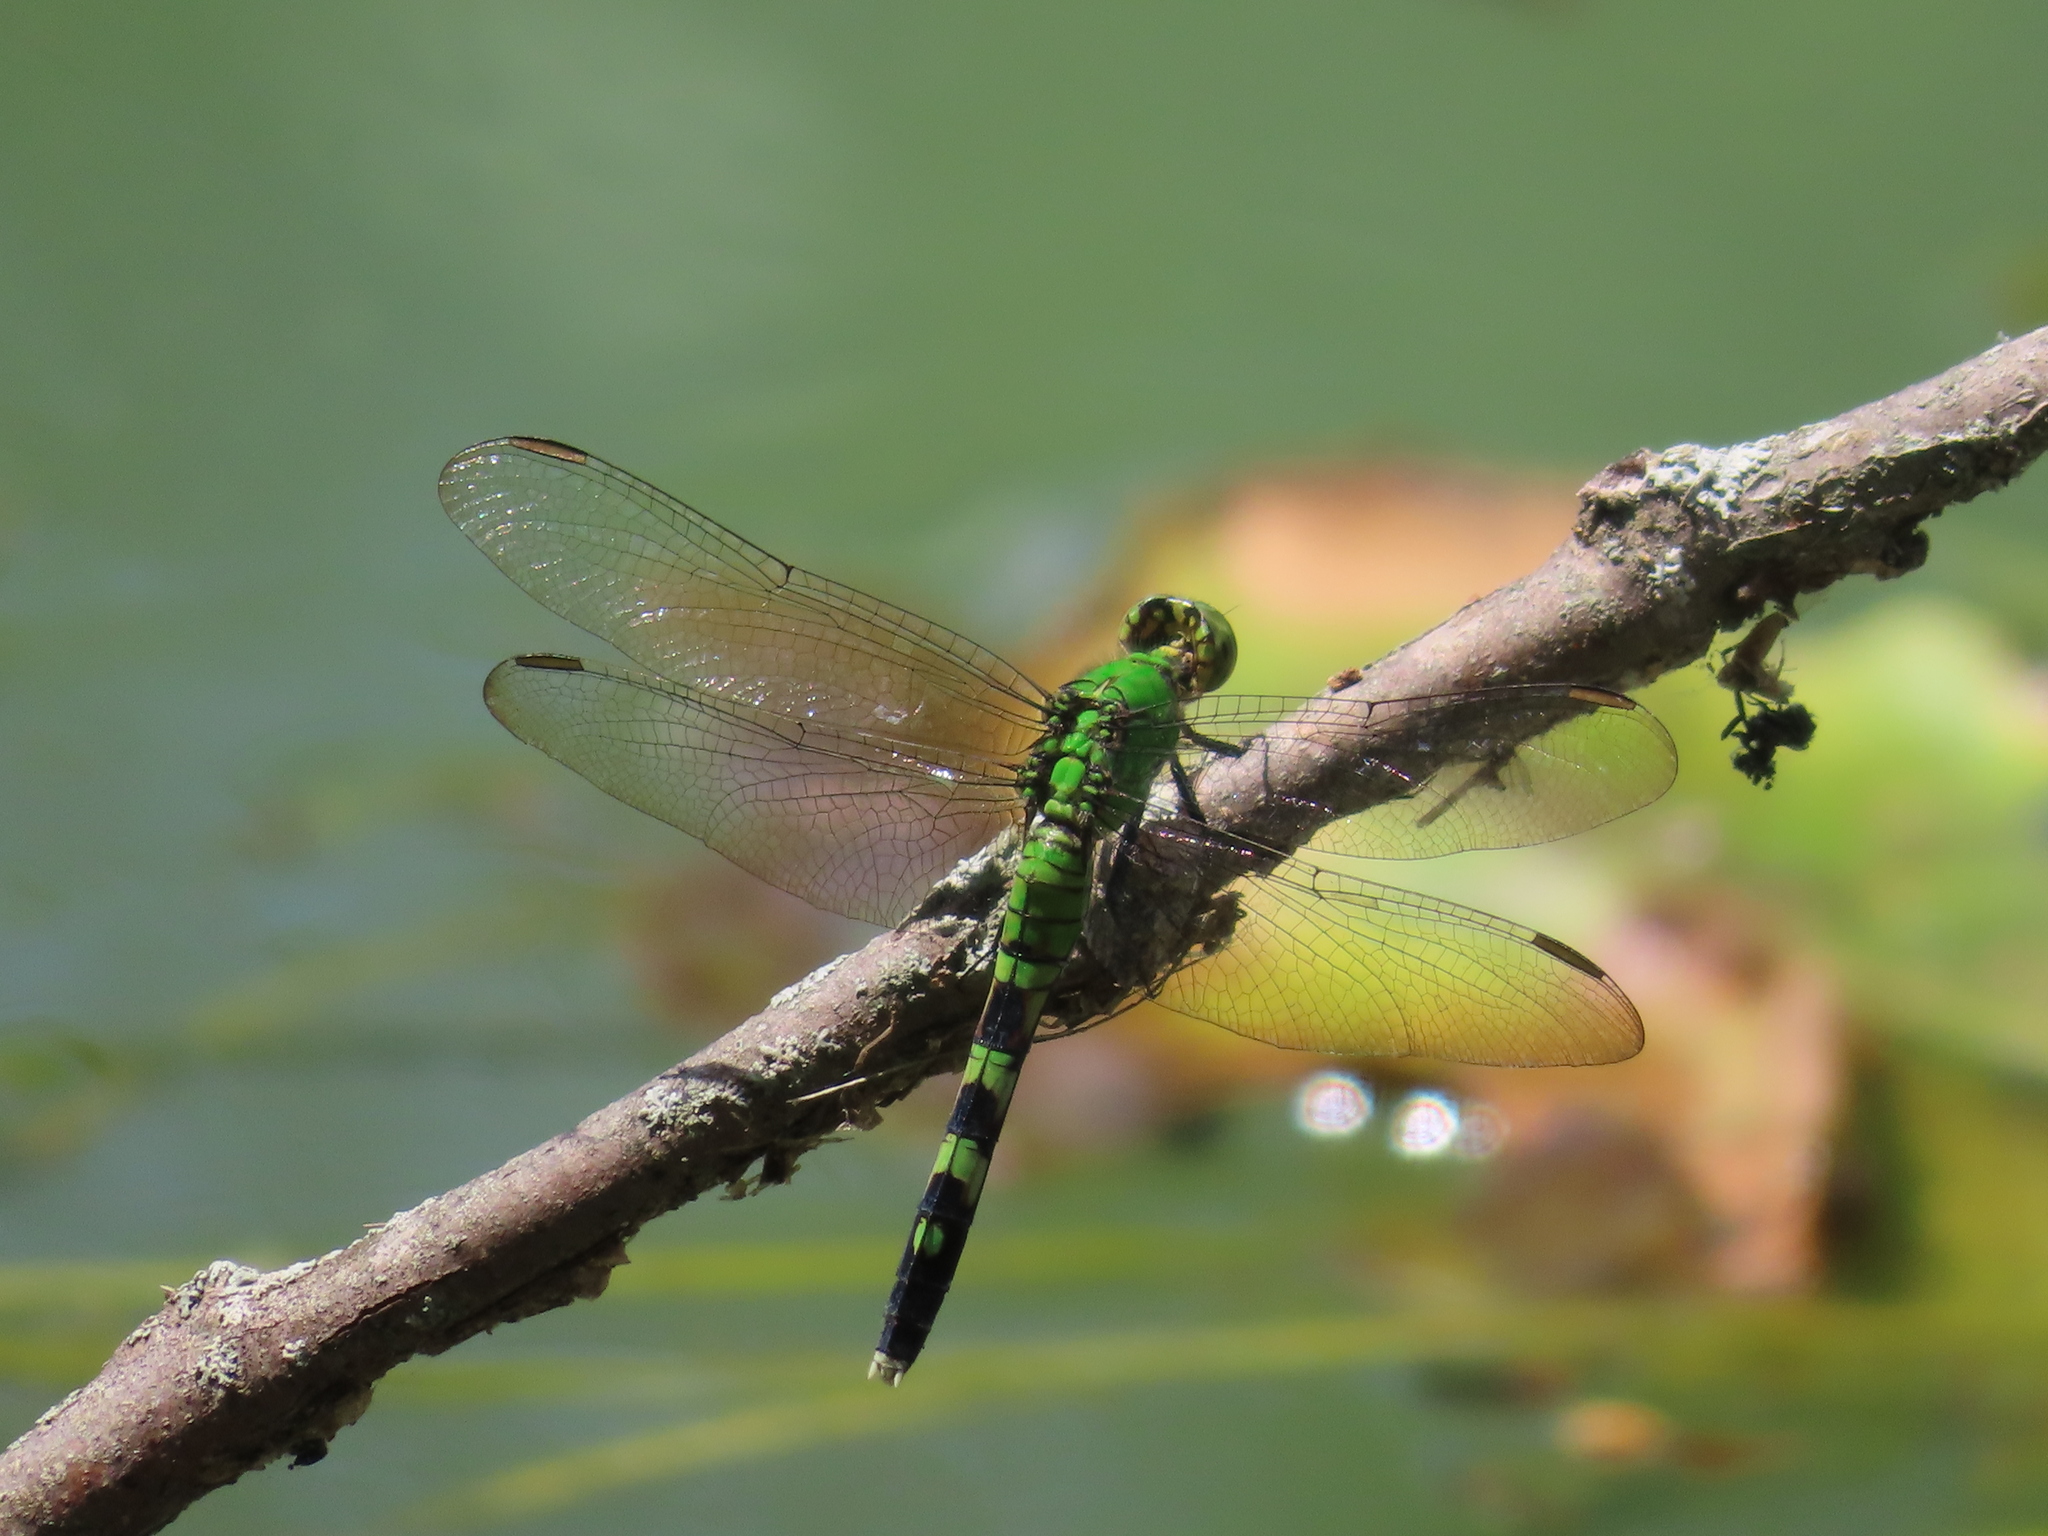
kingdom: Animalia
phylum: Arthropoda
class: Insecta
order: Odonata
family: Libellulidae
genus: Erythemis
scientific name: Erythemis simplicicollis
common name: Eastern pondhawk
